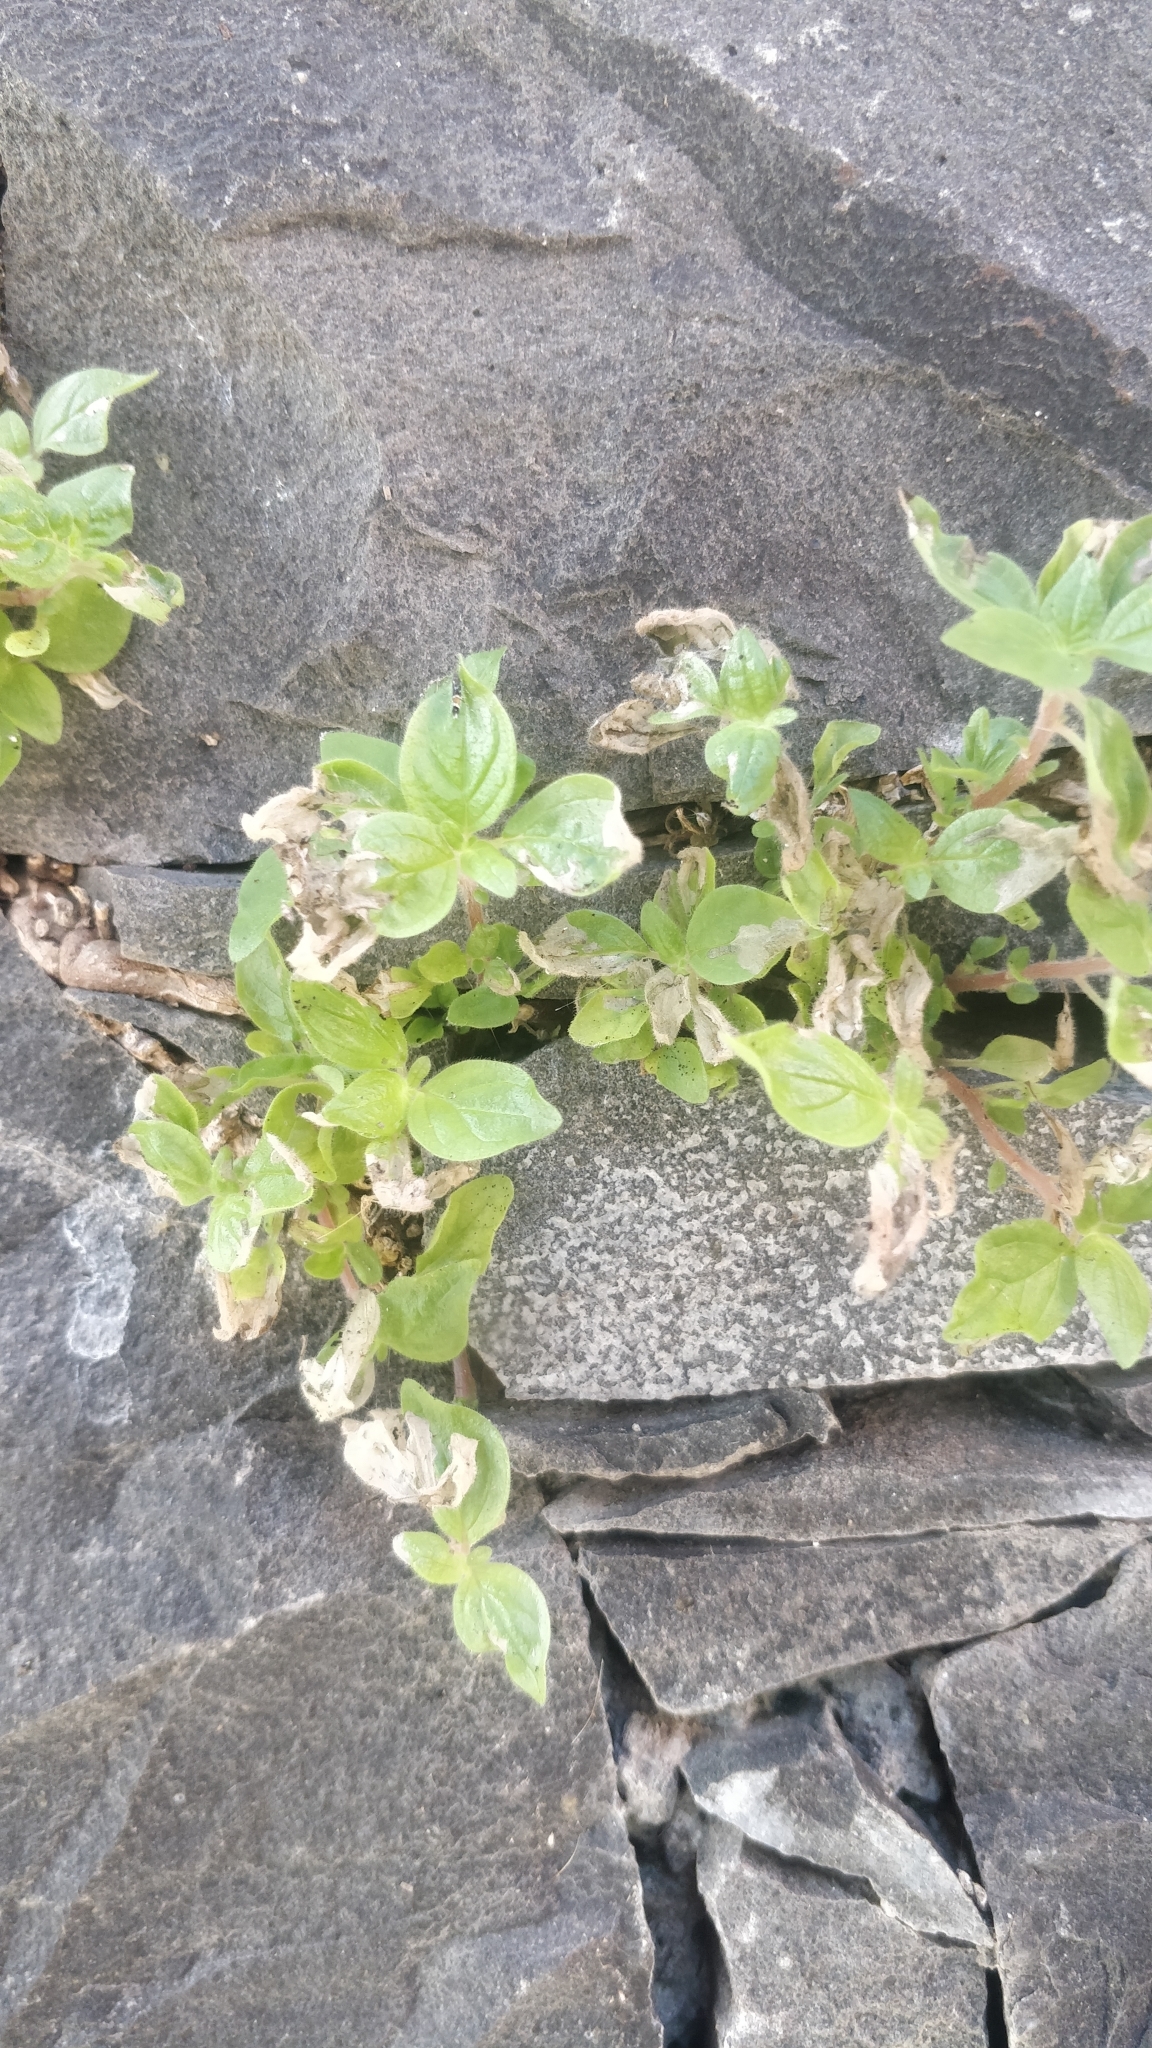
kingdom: Plantae
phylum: Tracheophyta
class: Magnoliopsida
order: Rosales
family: Urticaceae
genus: Parietaria
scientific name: Parietaria judaica
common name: Pellitory-of-the-wall
